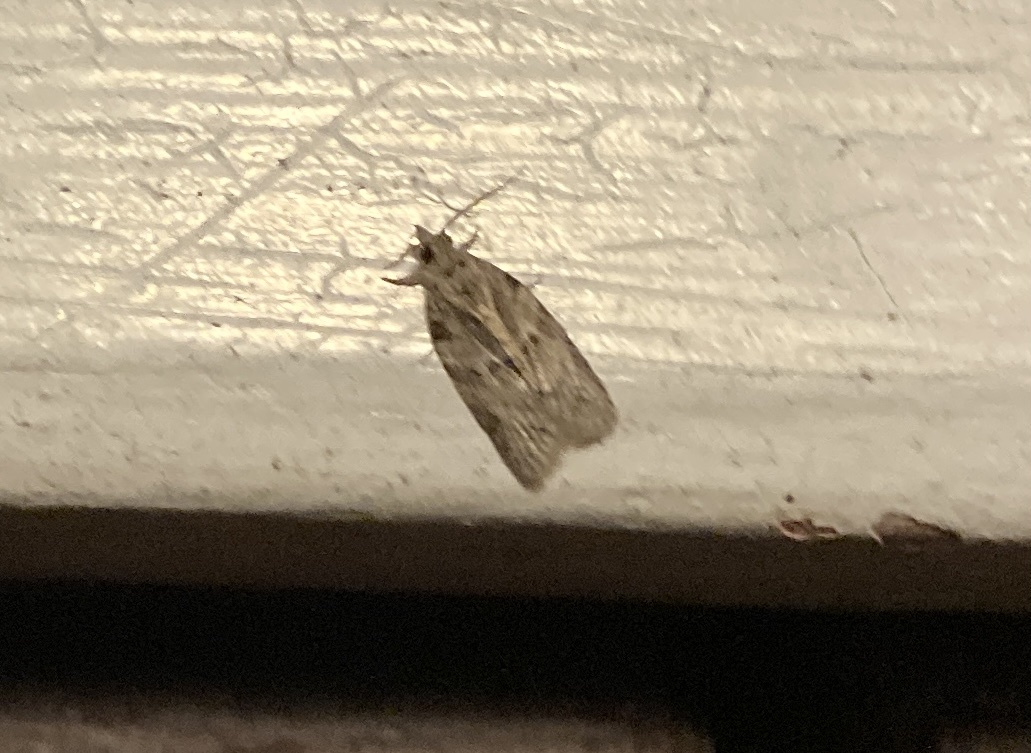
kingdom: Animalia
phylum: Arthropoda
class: Insecta
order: Lepidoptera
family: Tortricidae
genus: Isotenes
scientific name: Isotenes miserana
